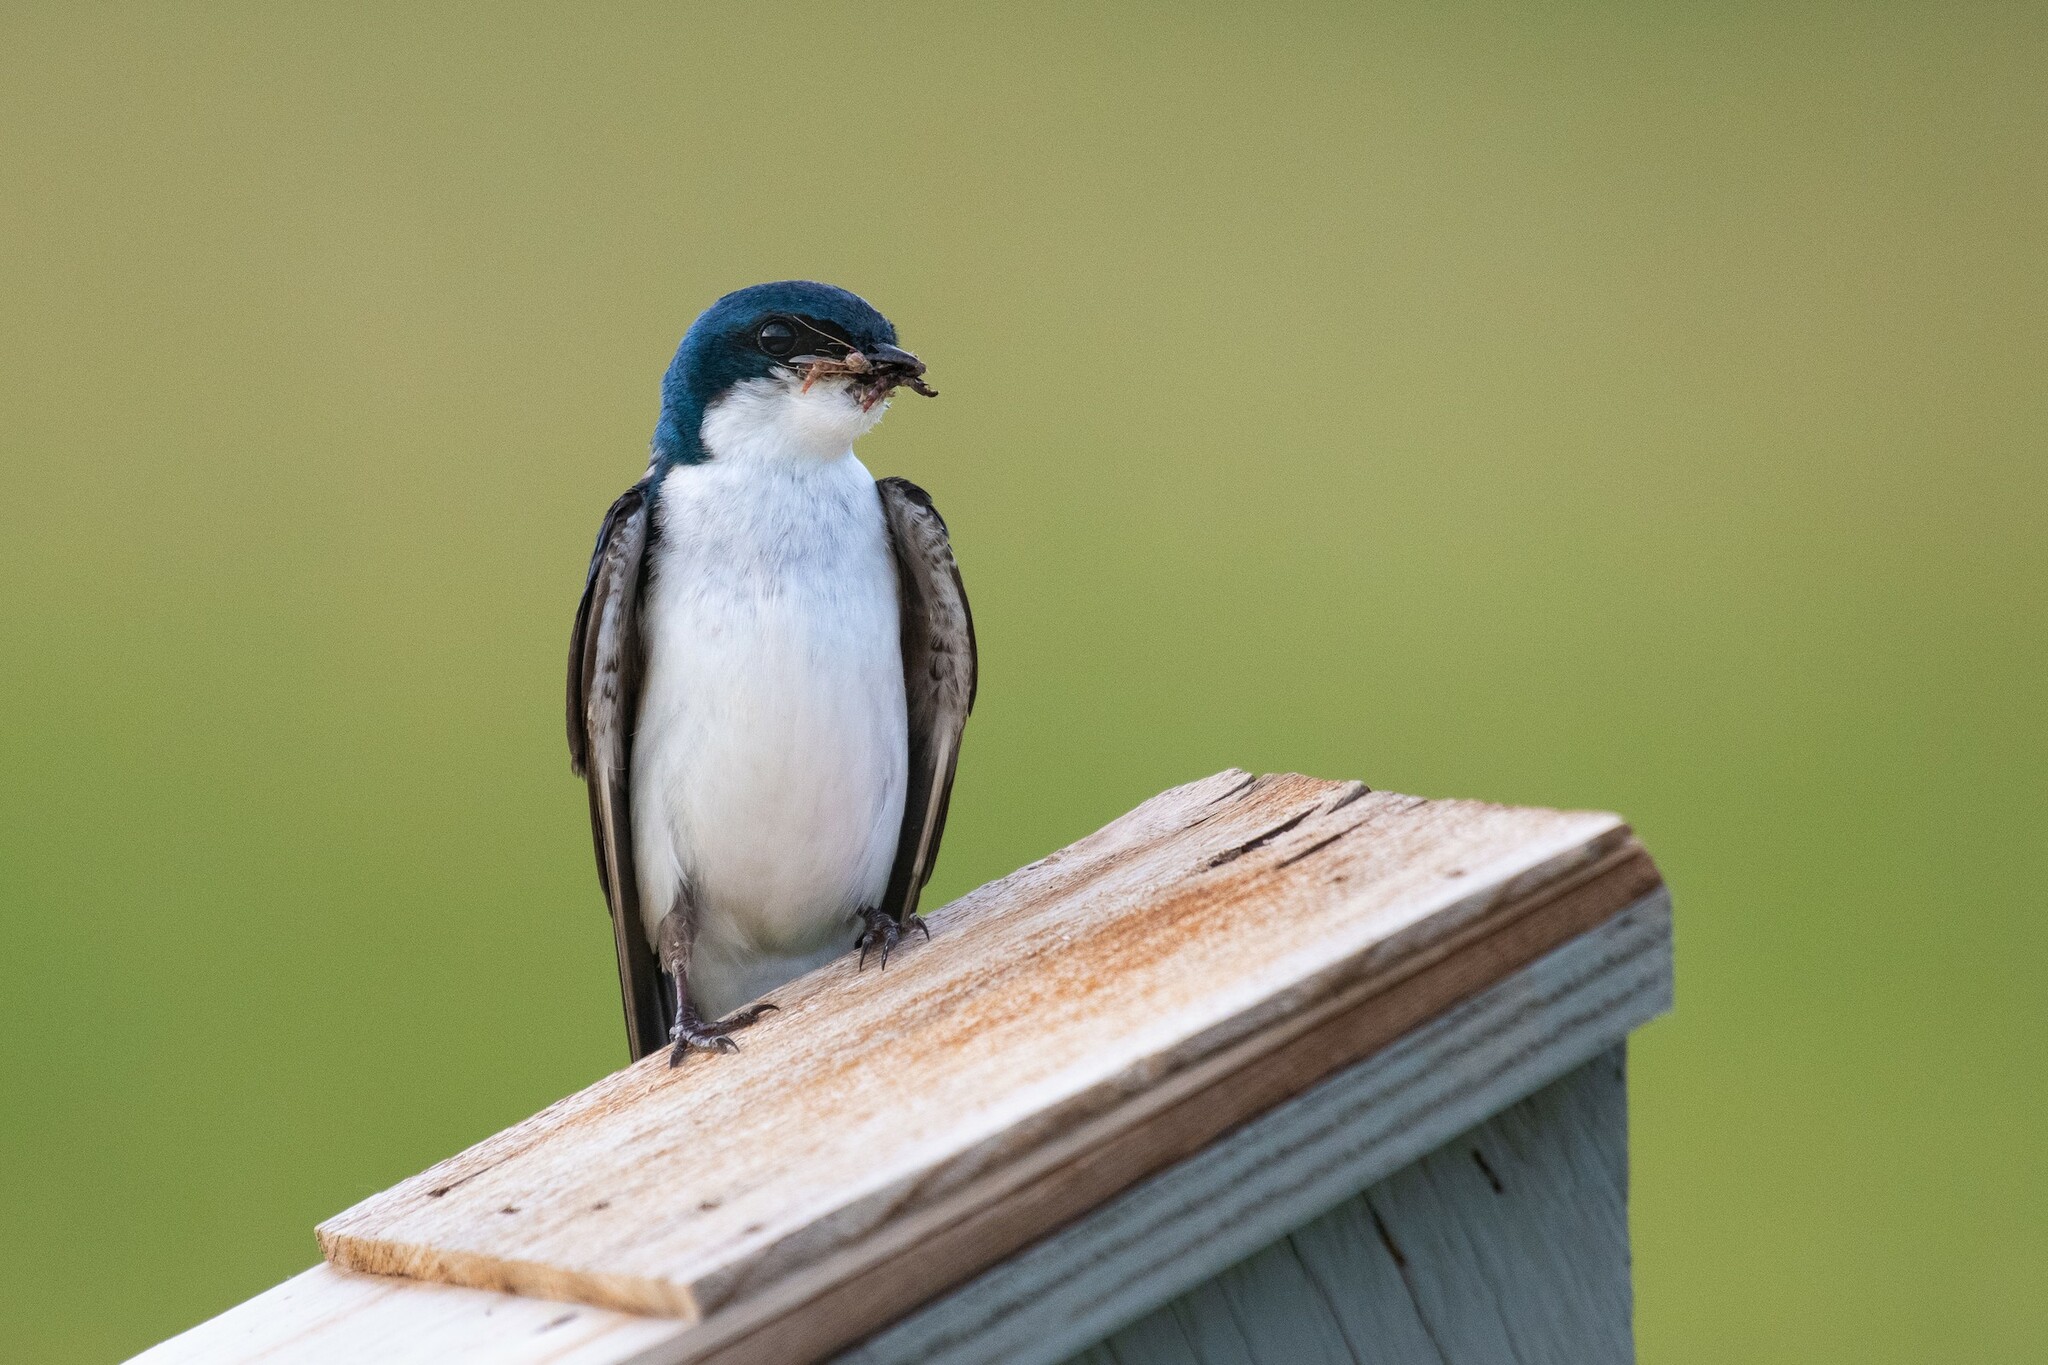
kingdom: Animalia
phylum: Chordata
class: Aves
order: Passeriformes
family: Hirundinidae
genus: Tachycineta
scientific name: Tachycineta bicolor
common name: Tree swallow
